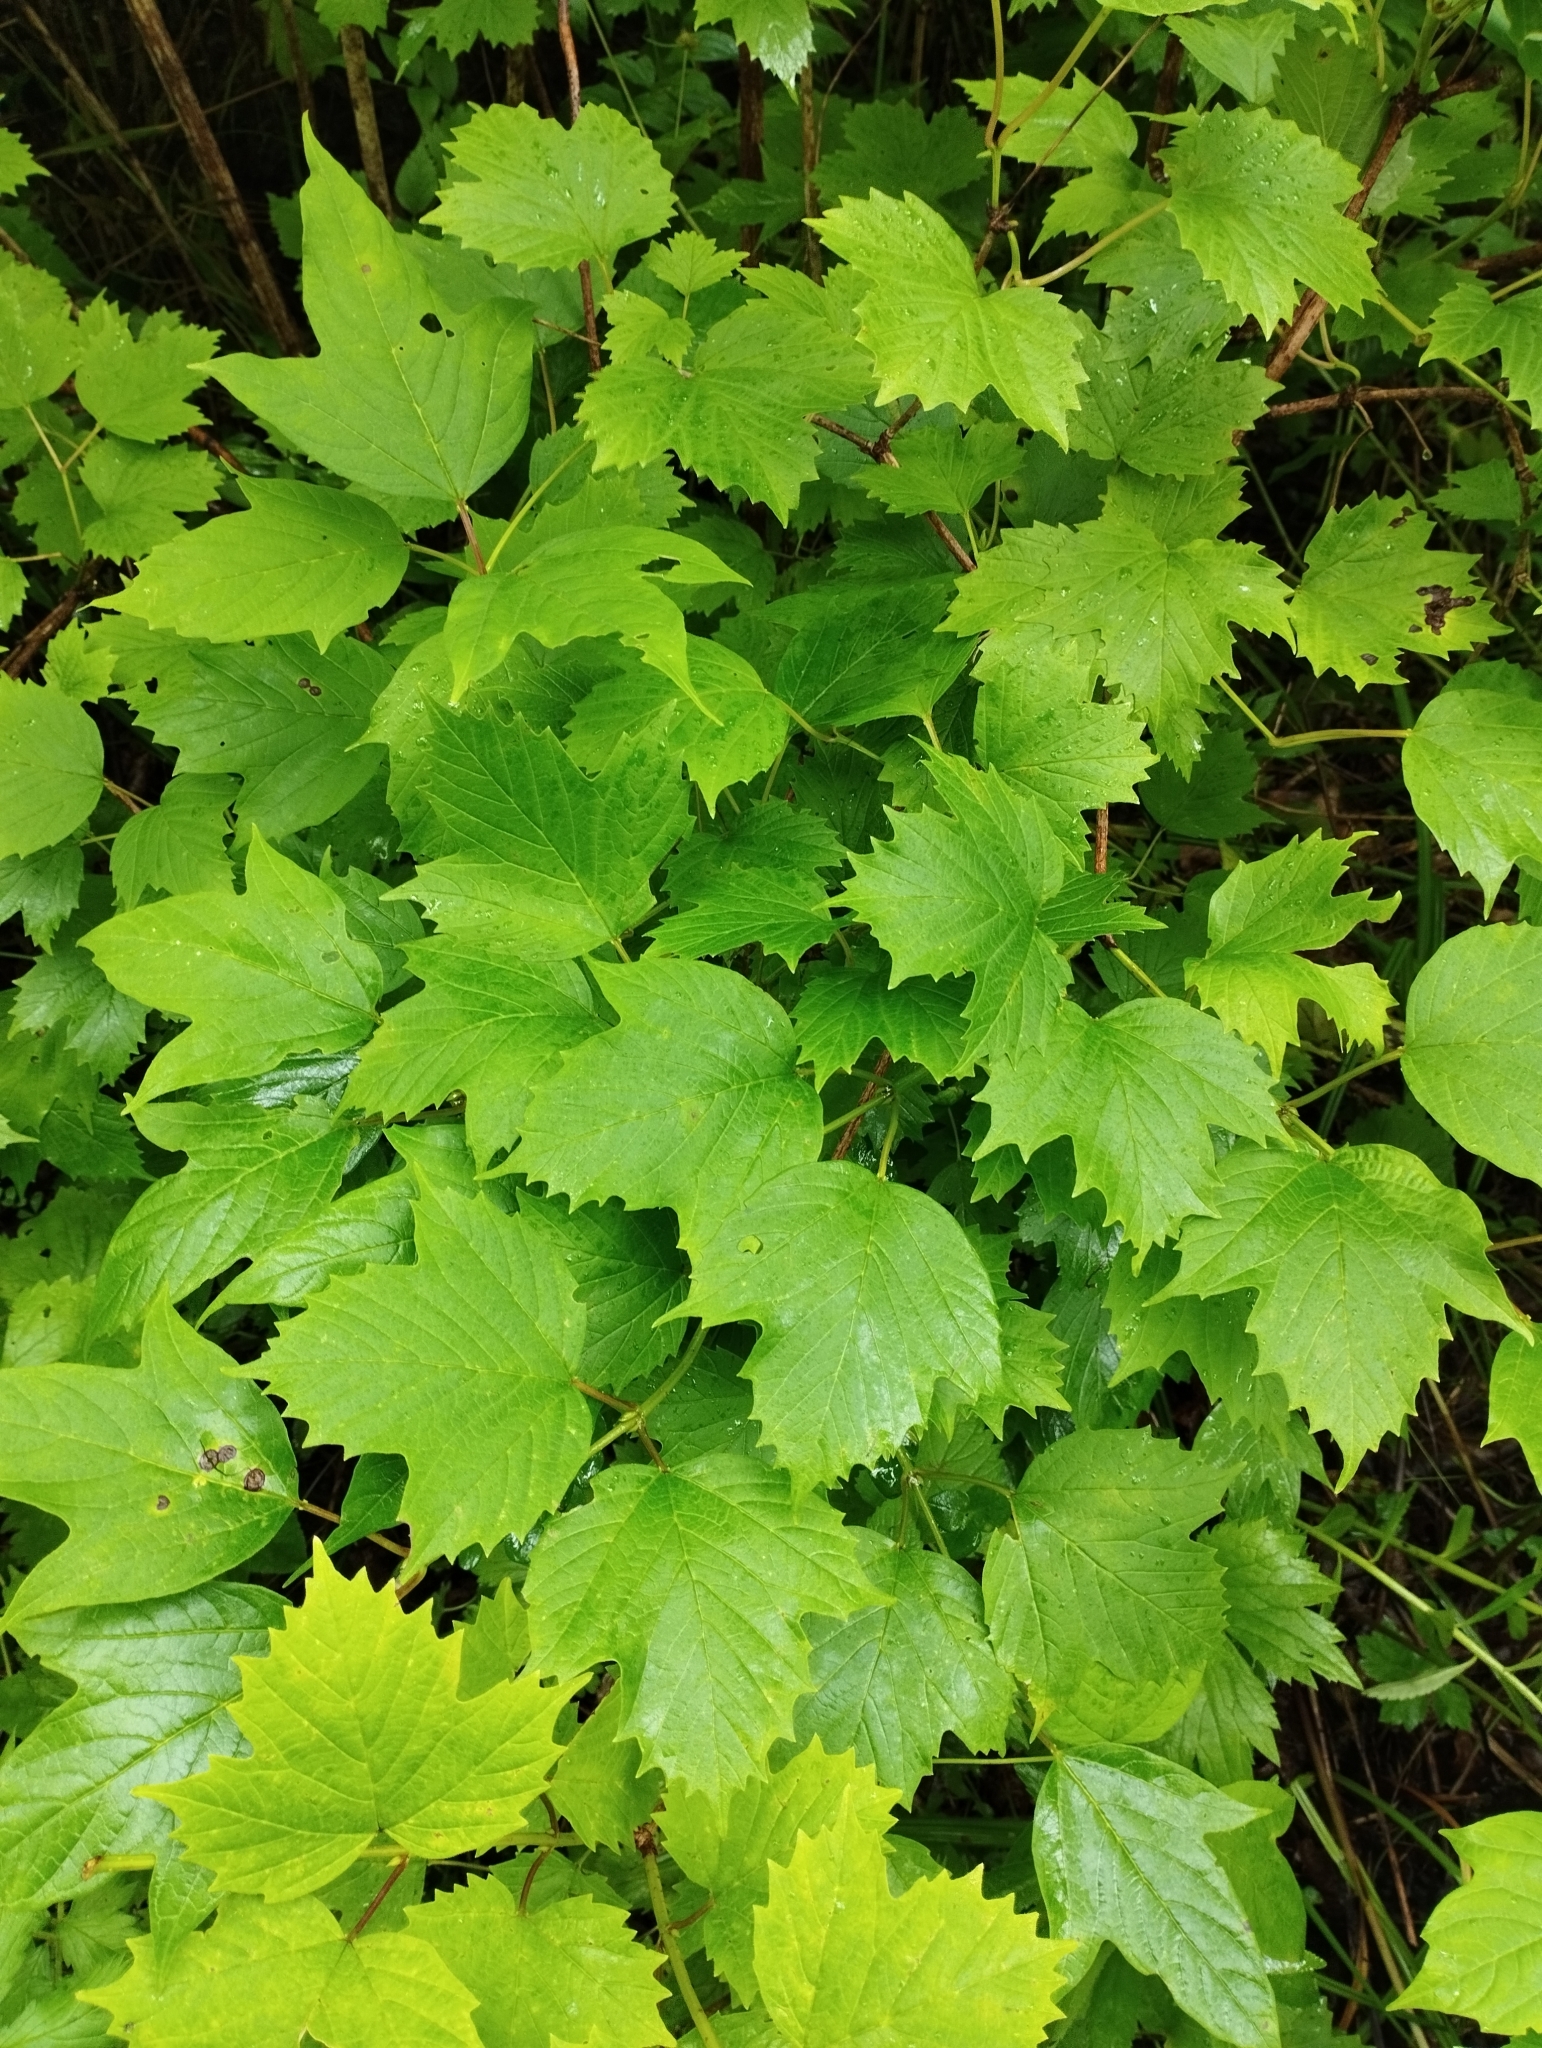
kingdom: Plantae
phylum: Tracheophyta
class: Magnoliopsida
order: Dipsacales
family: Viburnaceae
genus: Viburnum
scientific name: Viburnum sargentii
